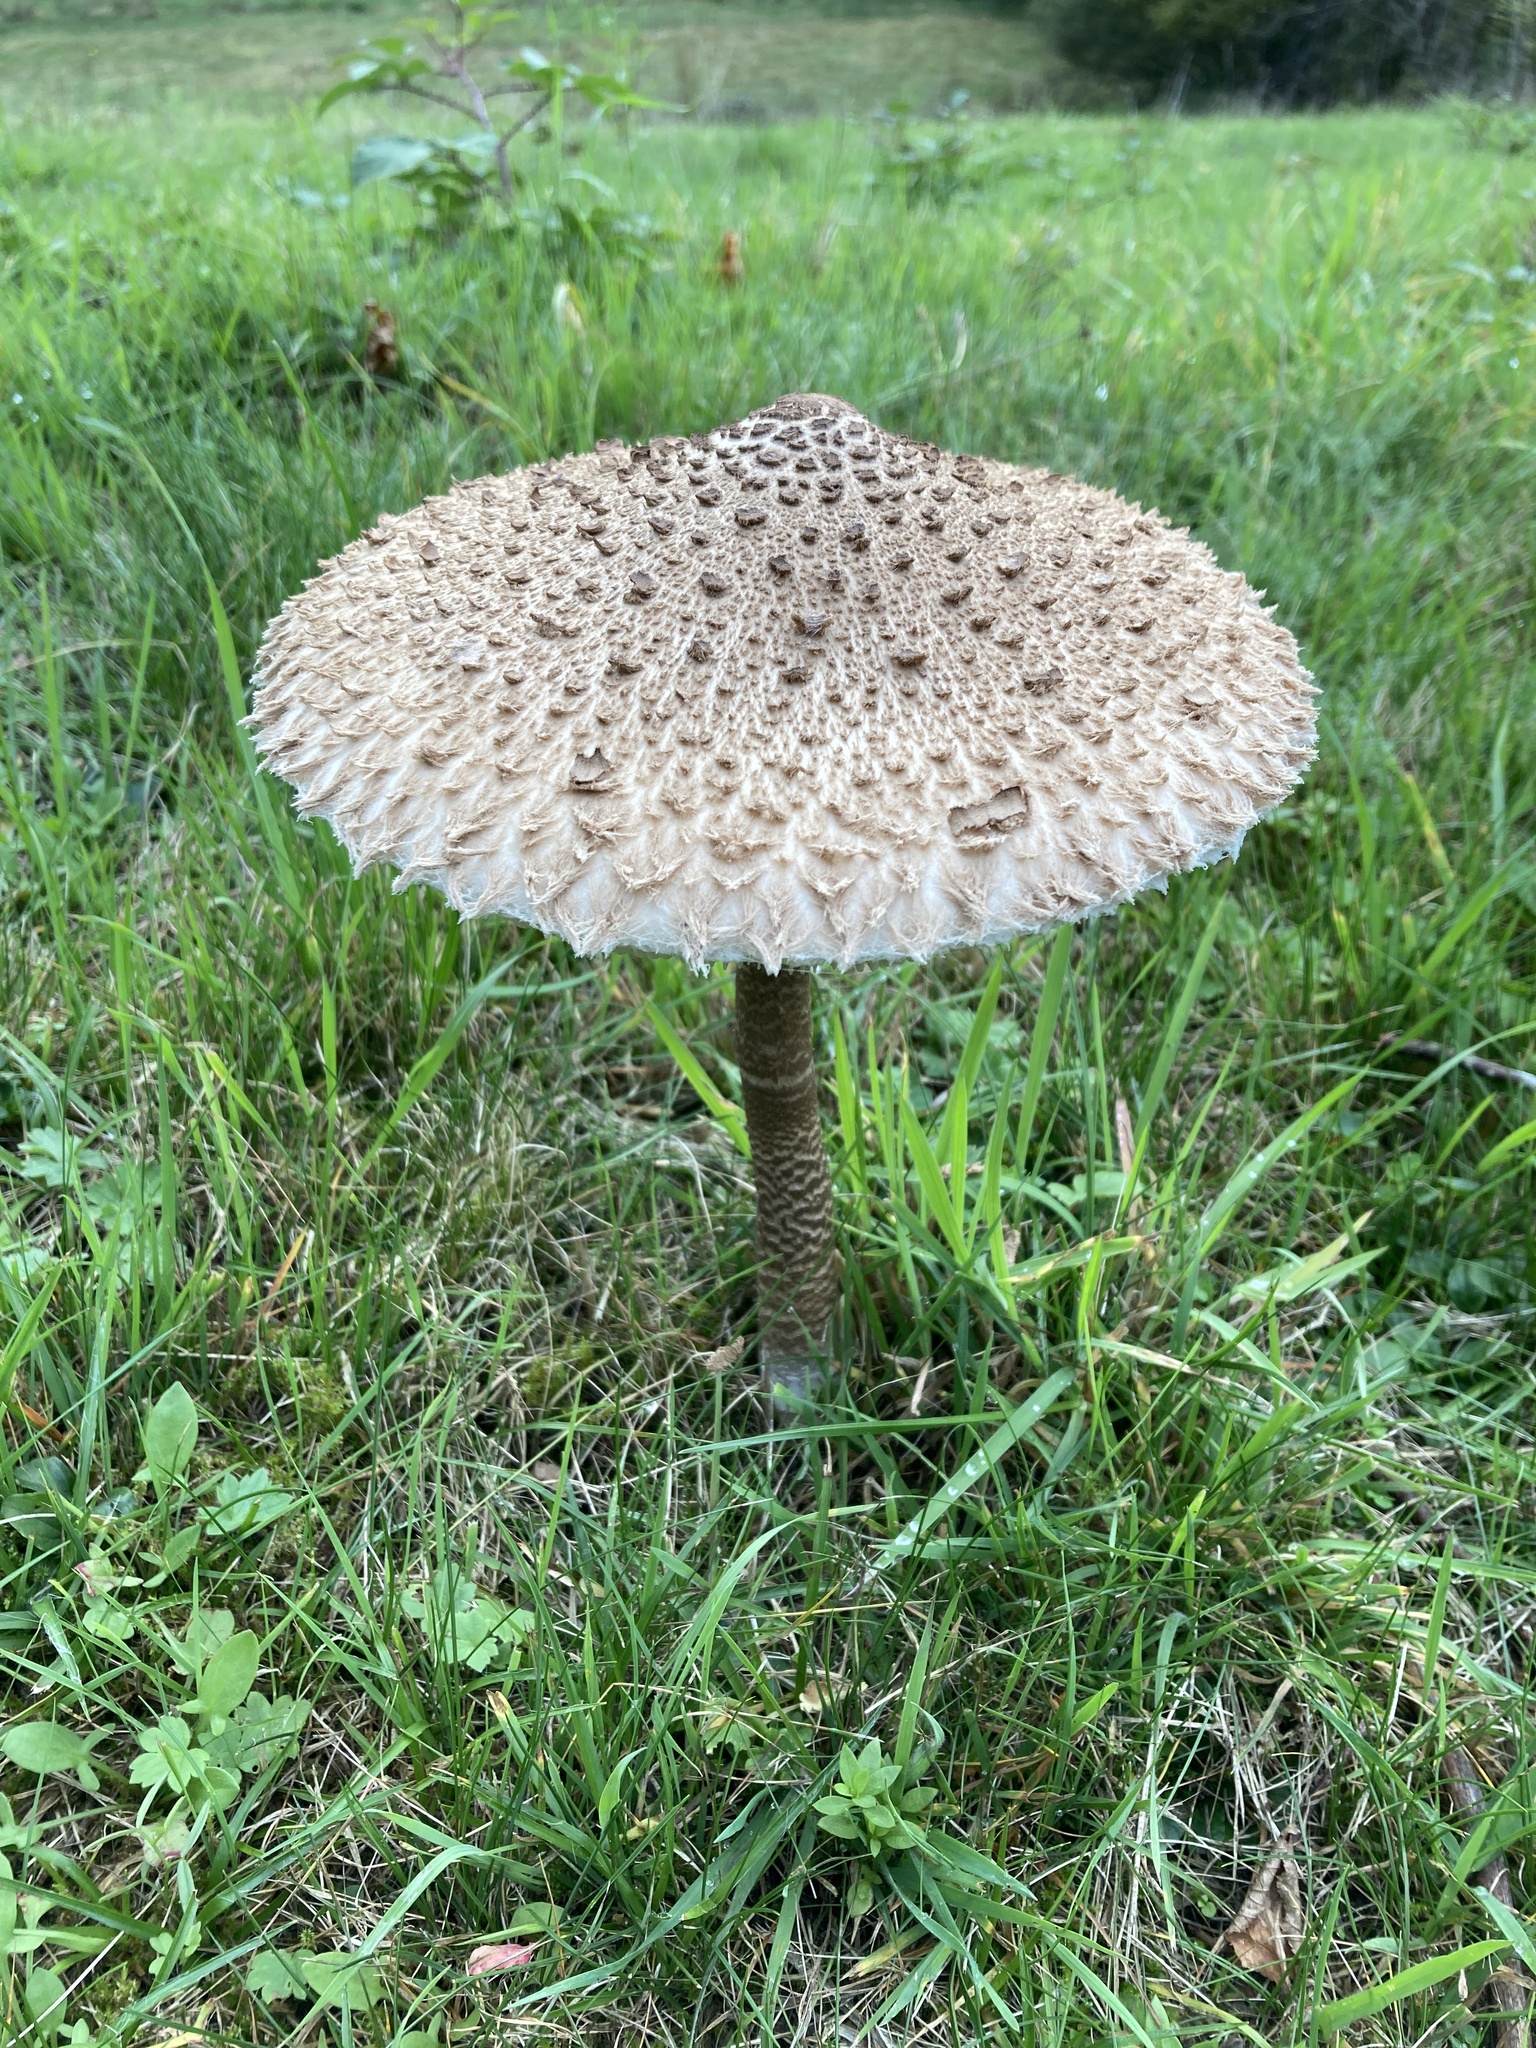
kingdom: Fungi
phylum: Basidiomycota
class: Agaricomycetes
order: Agaricales
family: Agaricaceae
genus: Macrolepiota
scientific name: Macrolepiota procera
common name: Parasol
